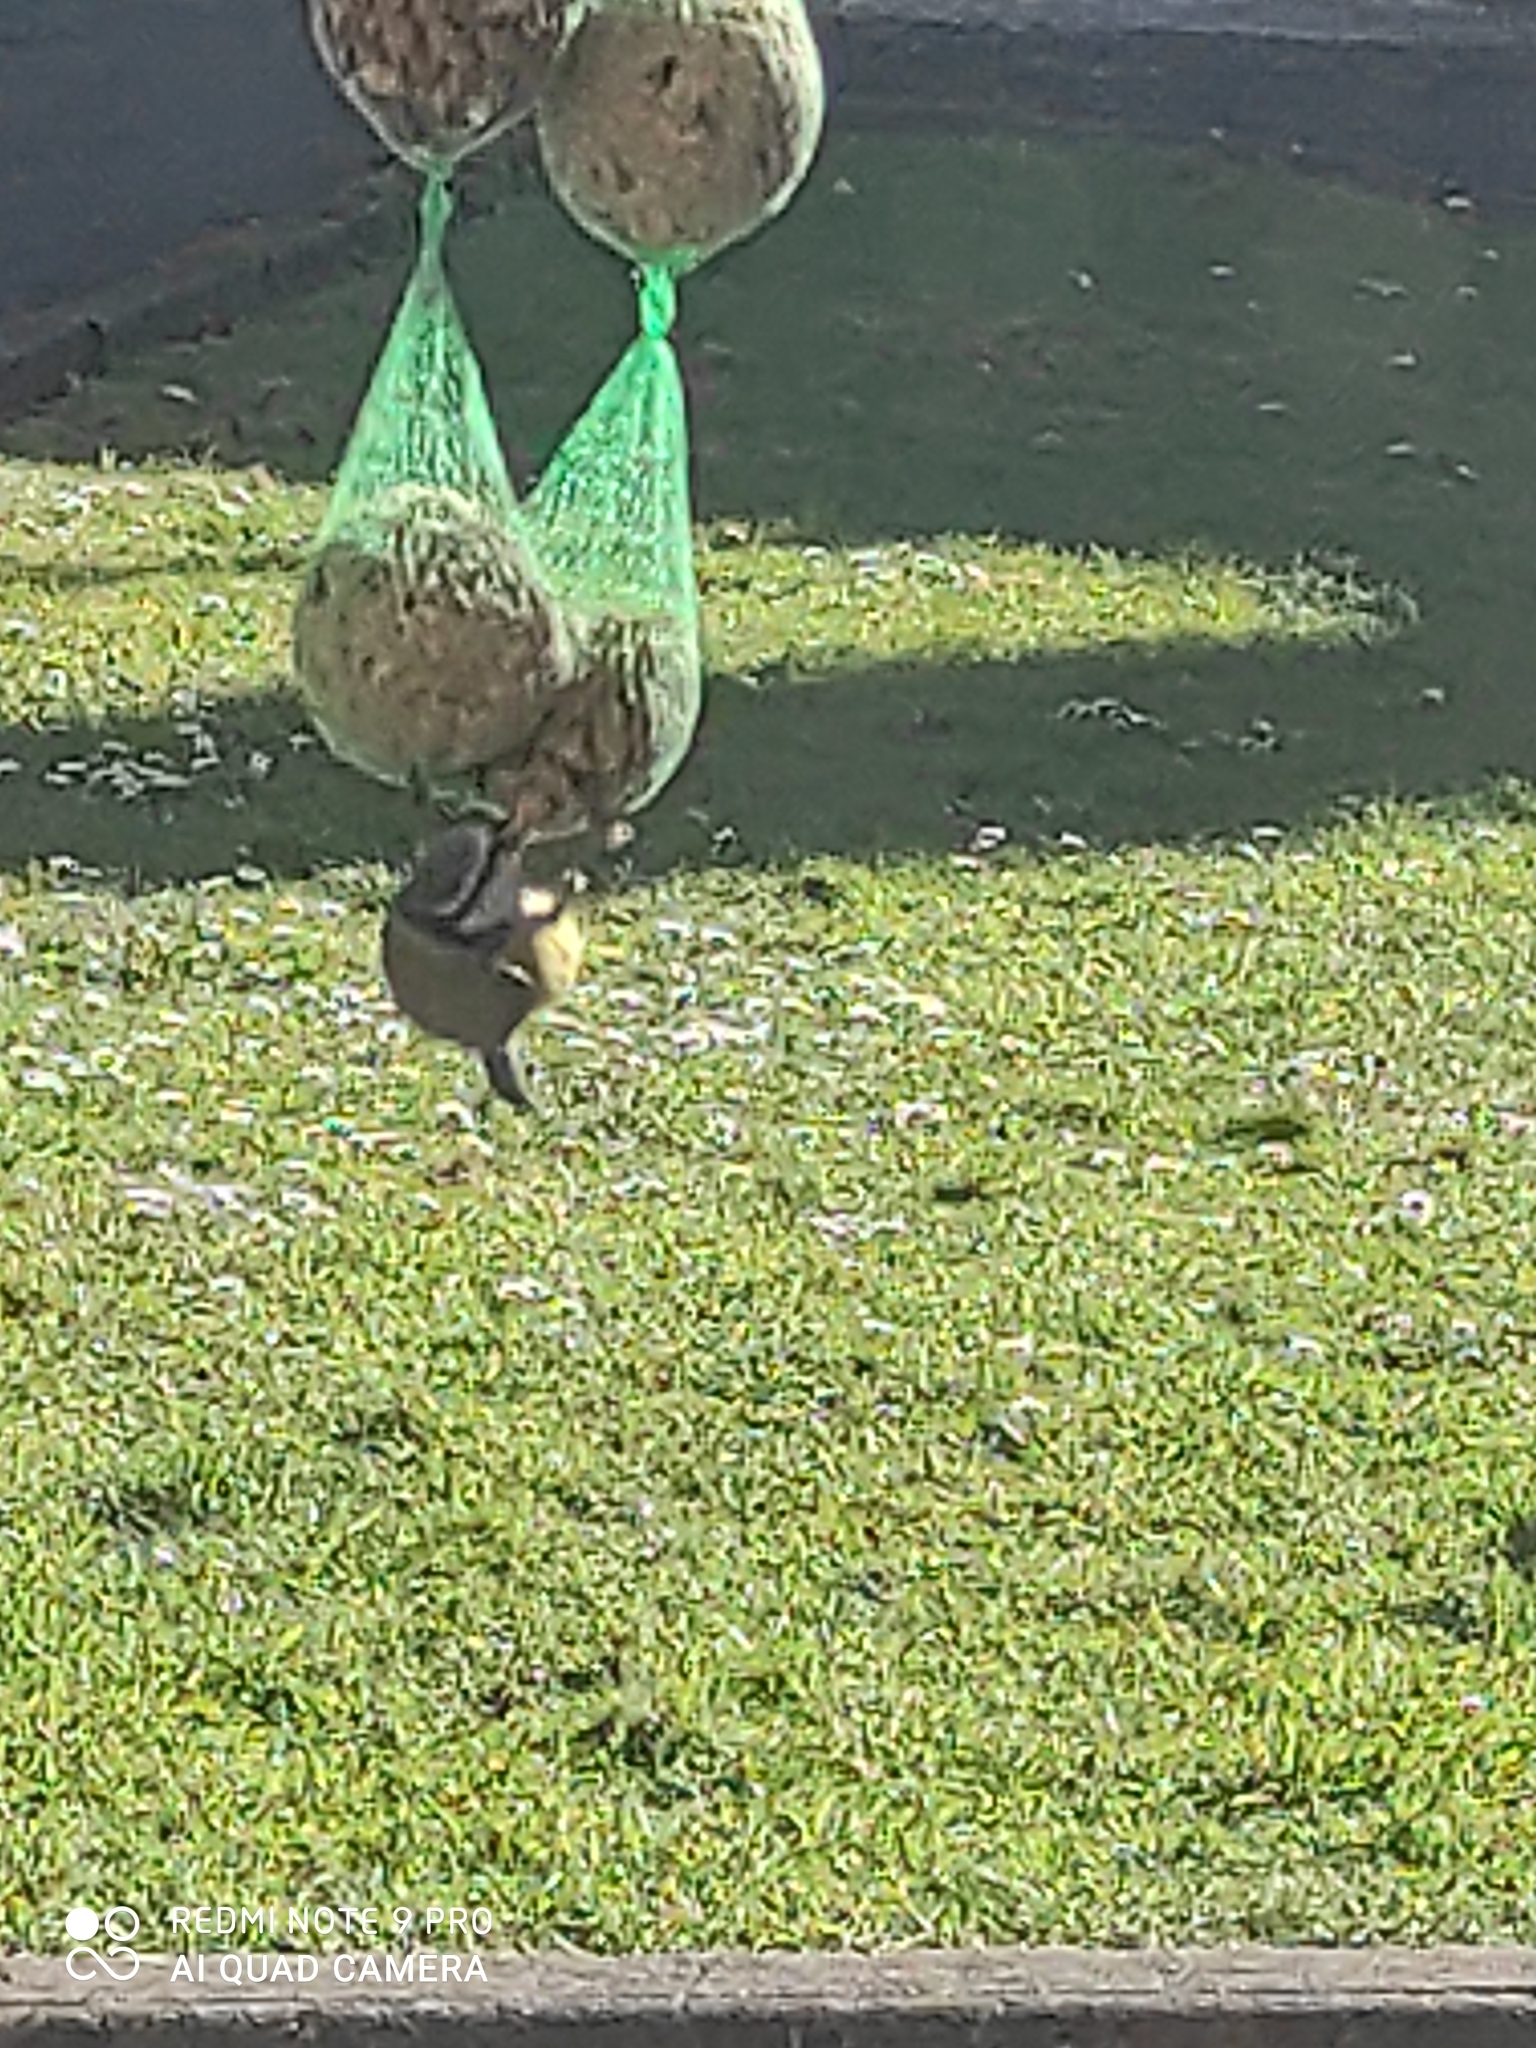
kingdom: Animalia
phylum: Chordata
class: Aves
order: Passeriformes
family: Paridae
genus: Cyanistes
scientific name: Cyanistes caeruleus
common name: Eurasian blue tit
